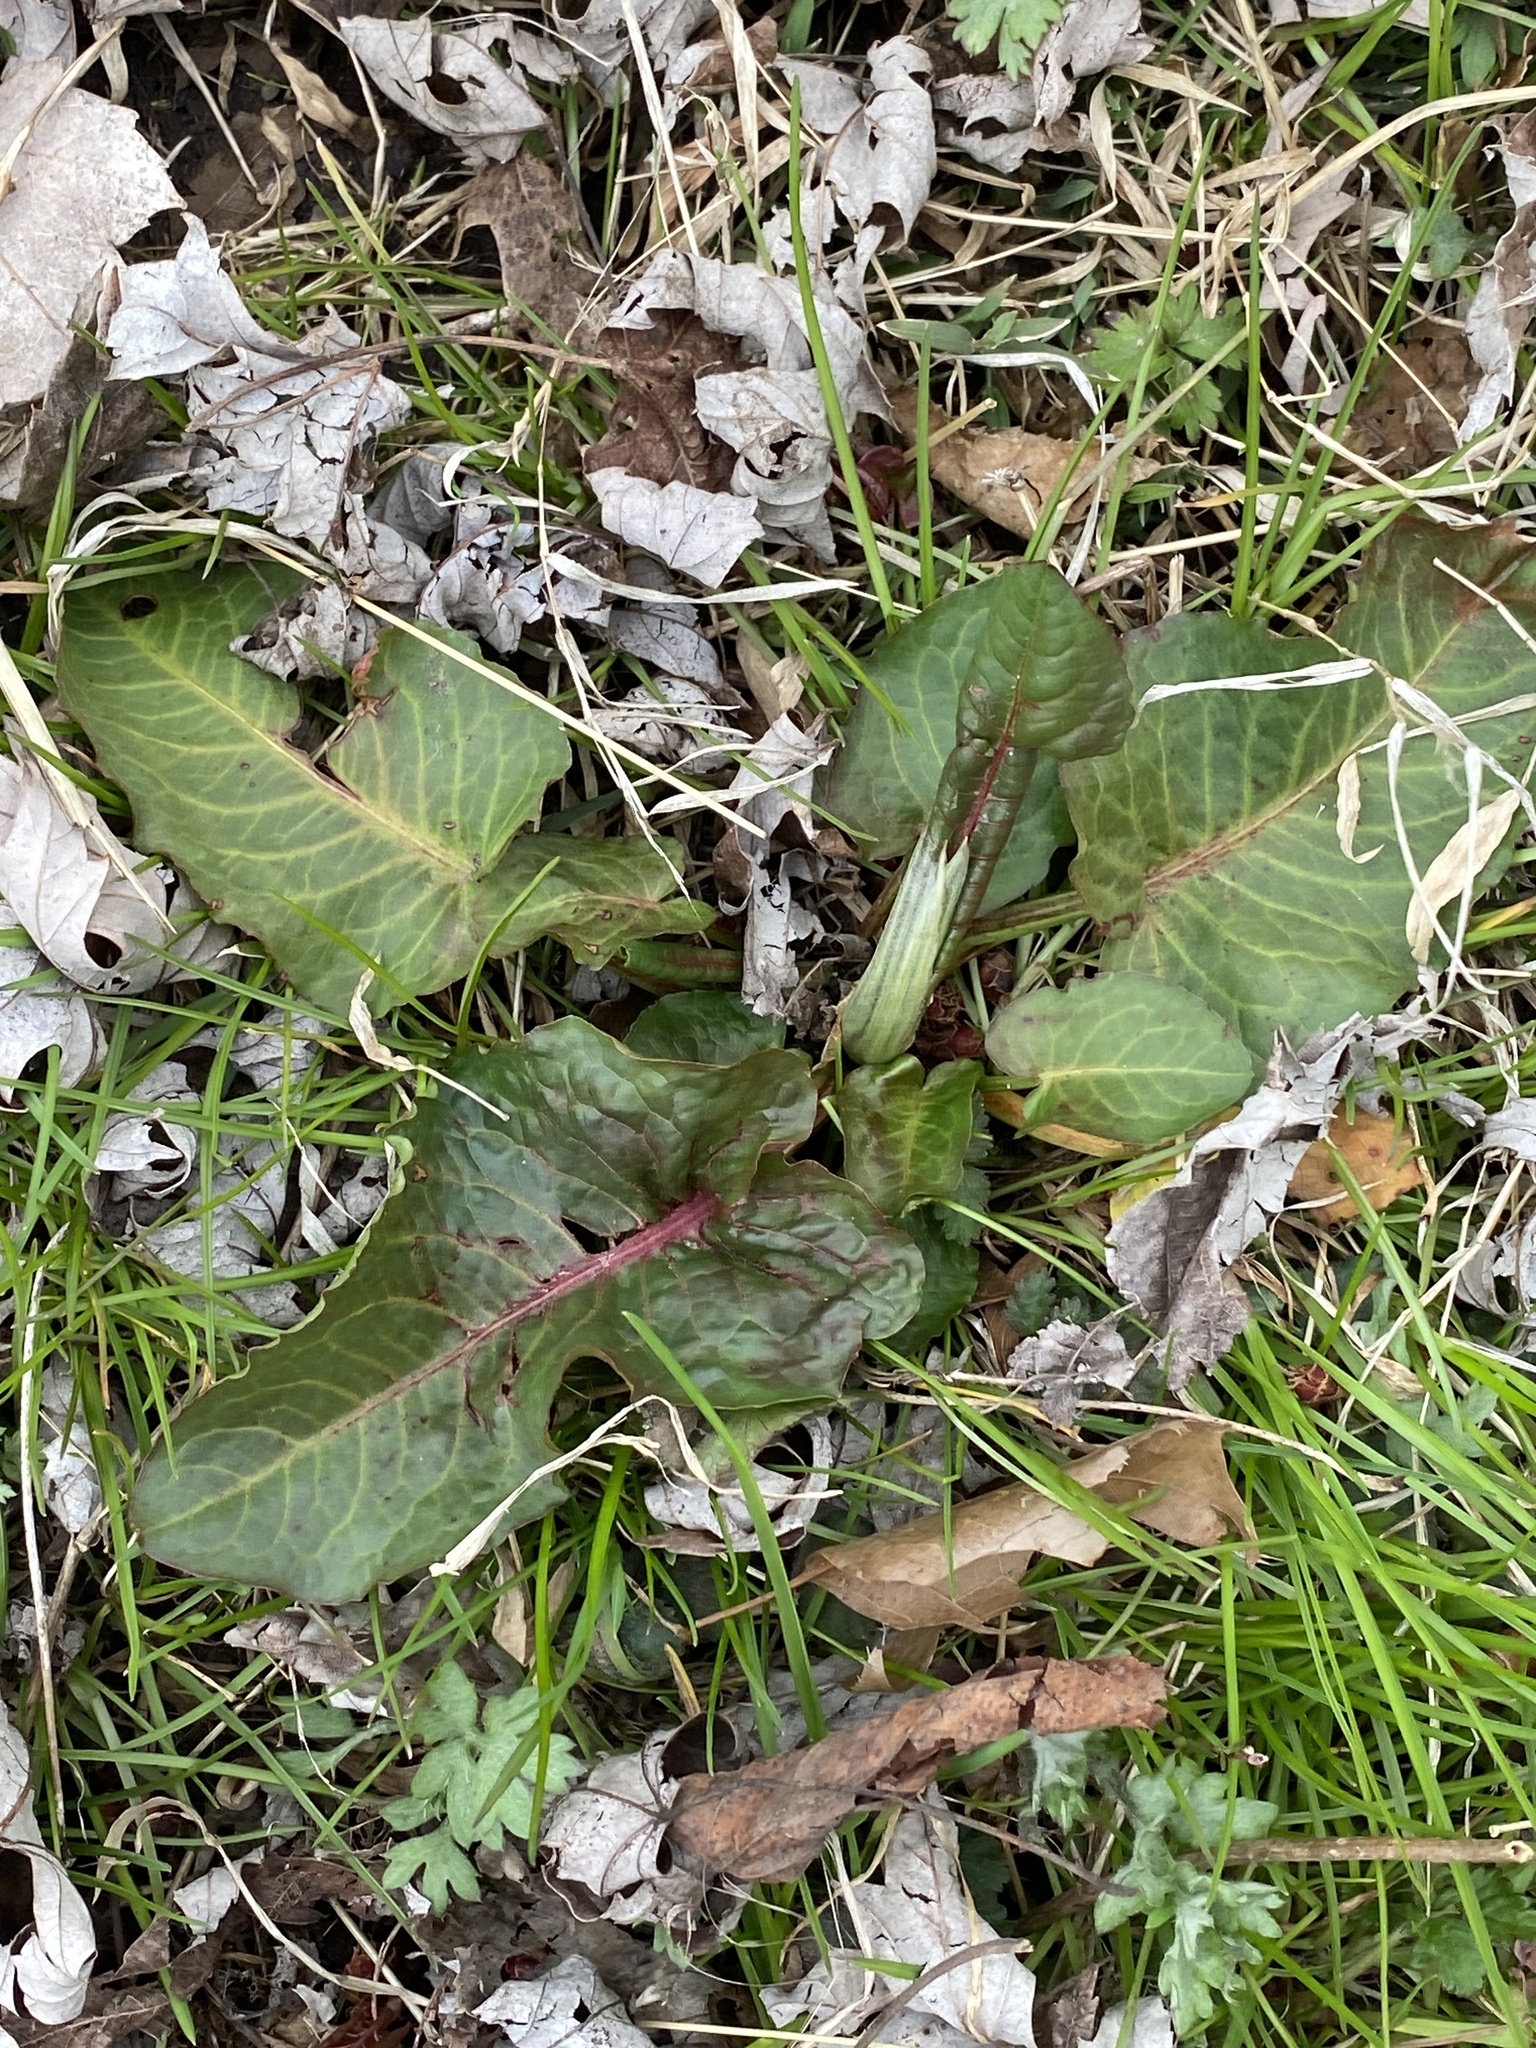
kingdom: Plantae
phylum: Tracheophyta
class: Magnoliopsida
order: Caryophyllales
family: Polygonaceae
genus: Rumex
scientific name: Rumex obtusifolius
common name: Bitter dock
